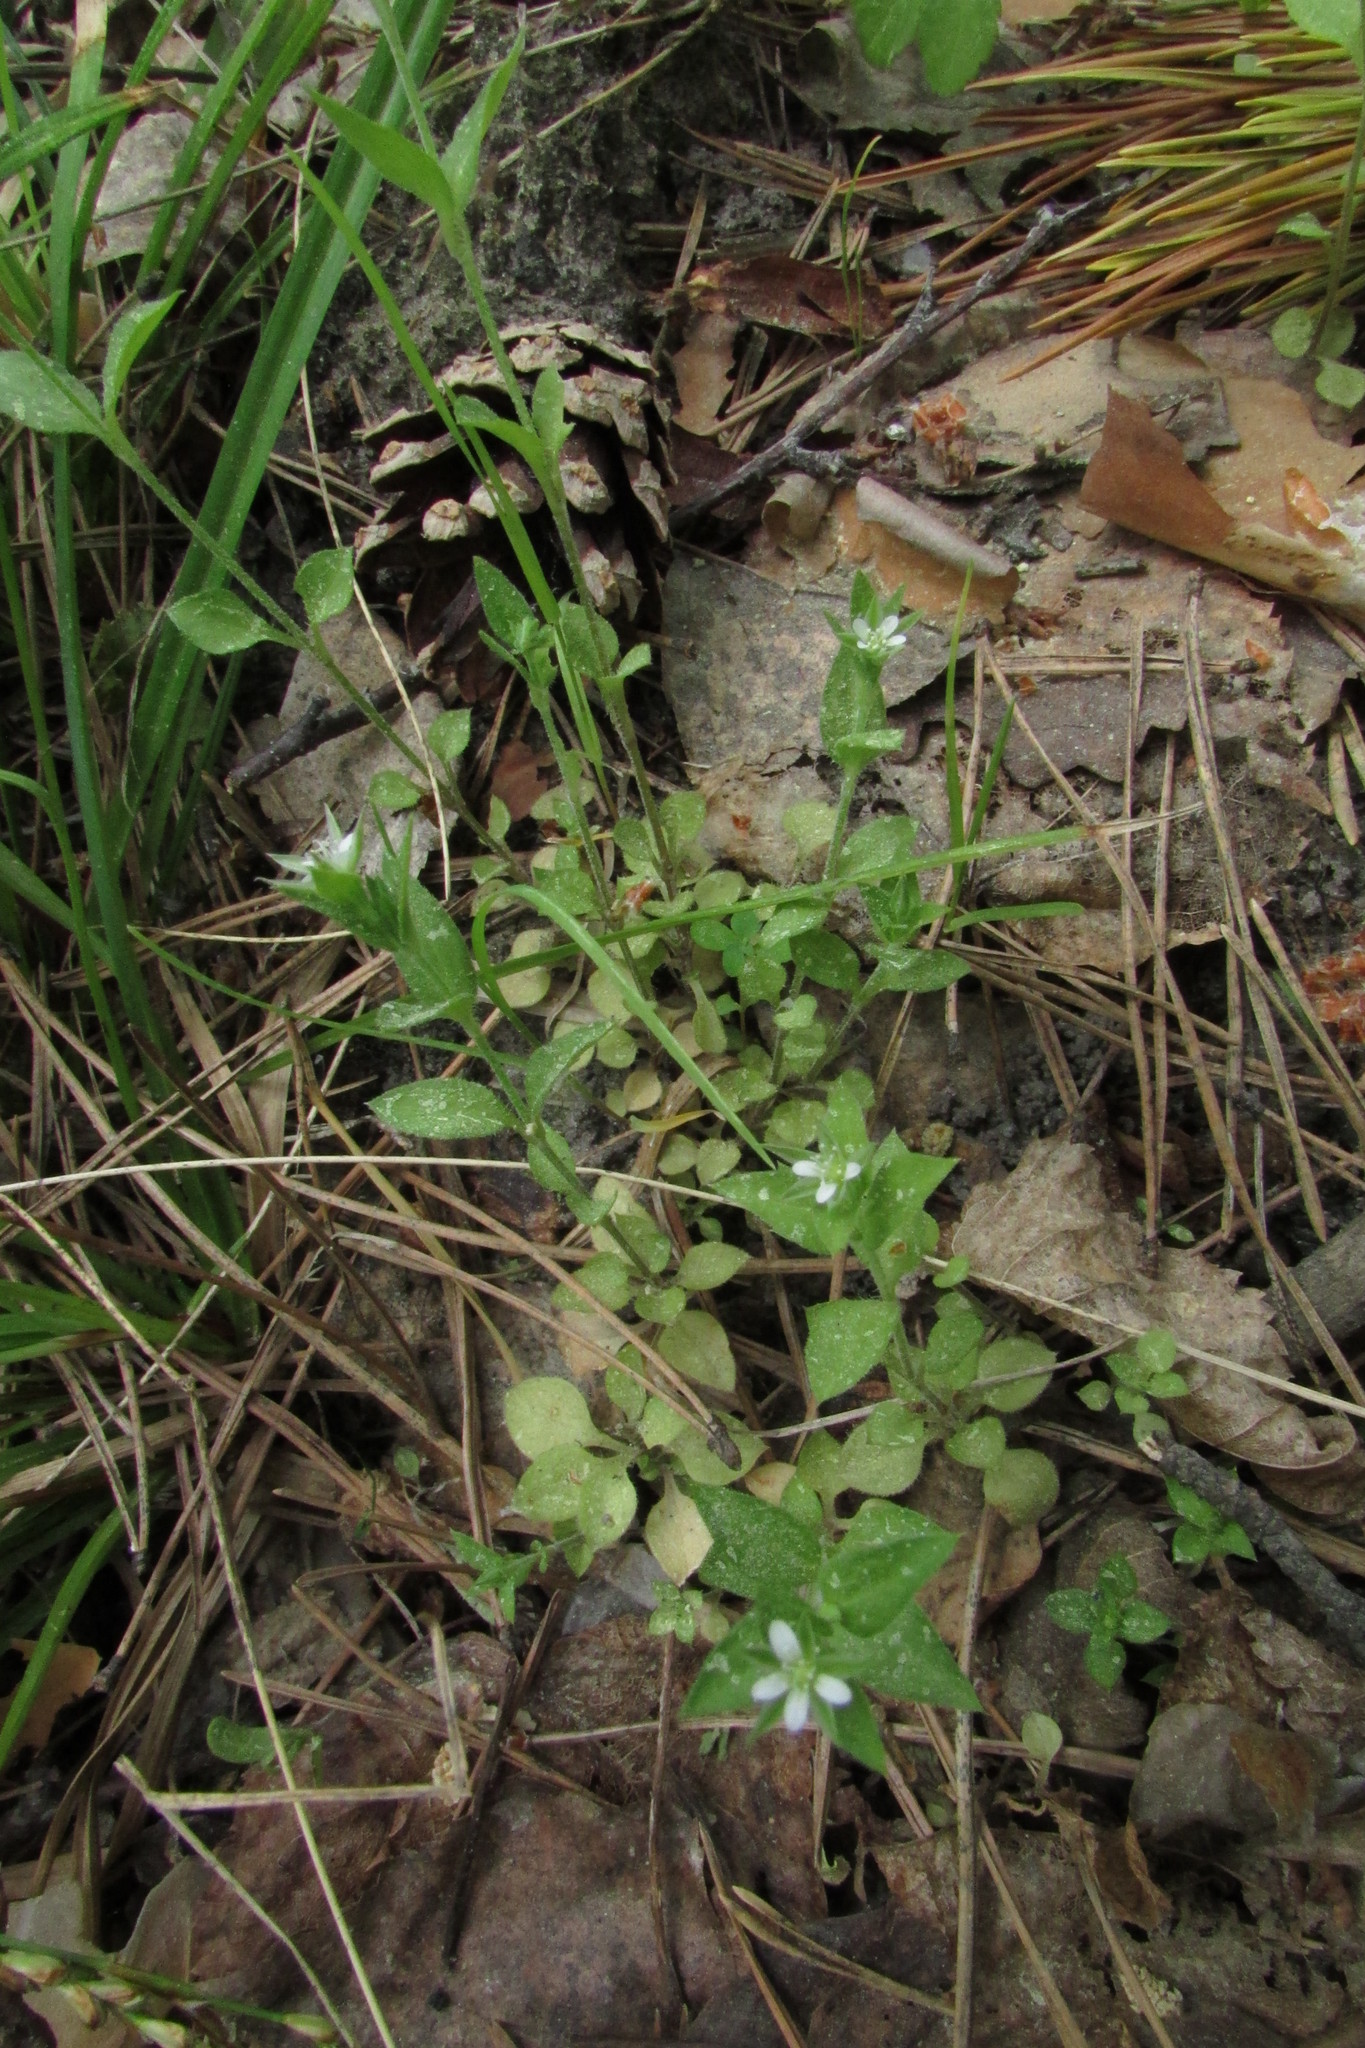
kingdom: Plantae
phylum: Tracheophyta
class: Magnoliopsida
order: Caryophyllales
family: Caryophyllaceae
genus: Moehringia
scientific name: Moehringia trinervia
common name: Three-nerved sandwort
